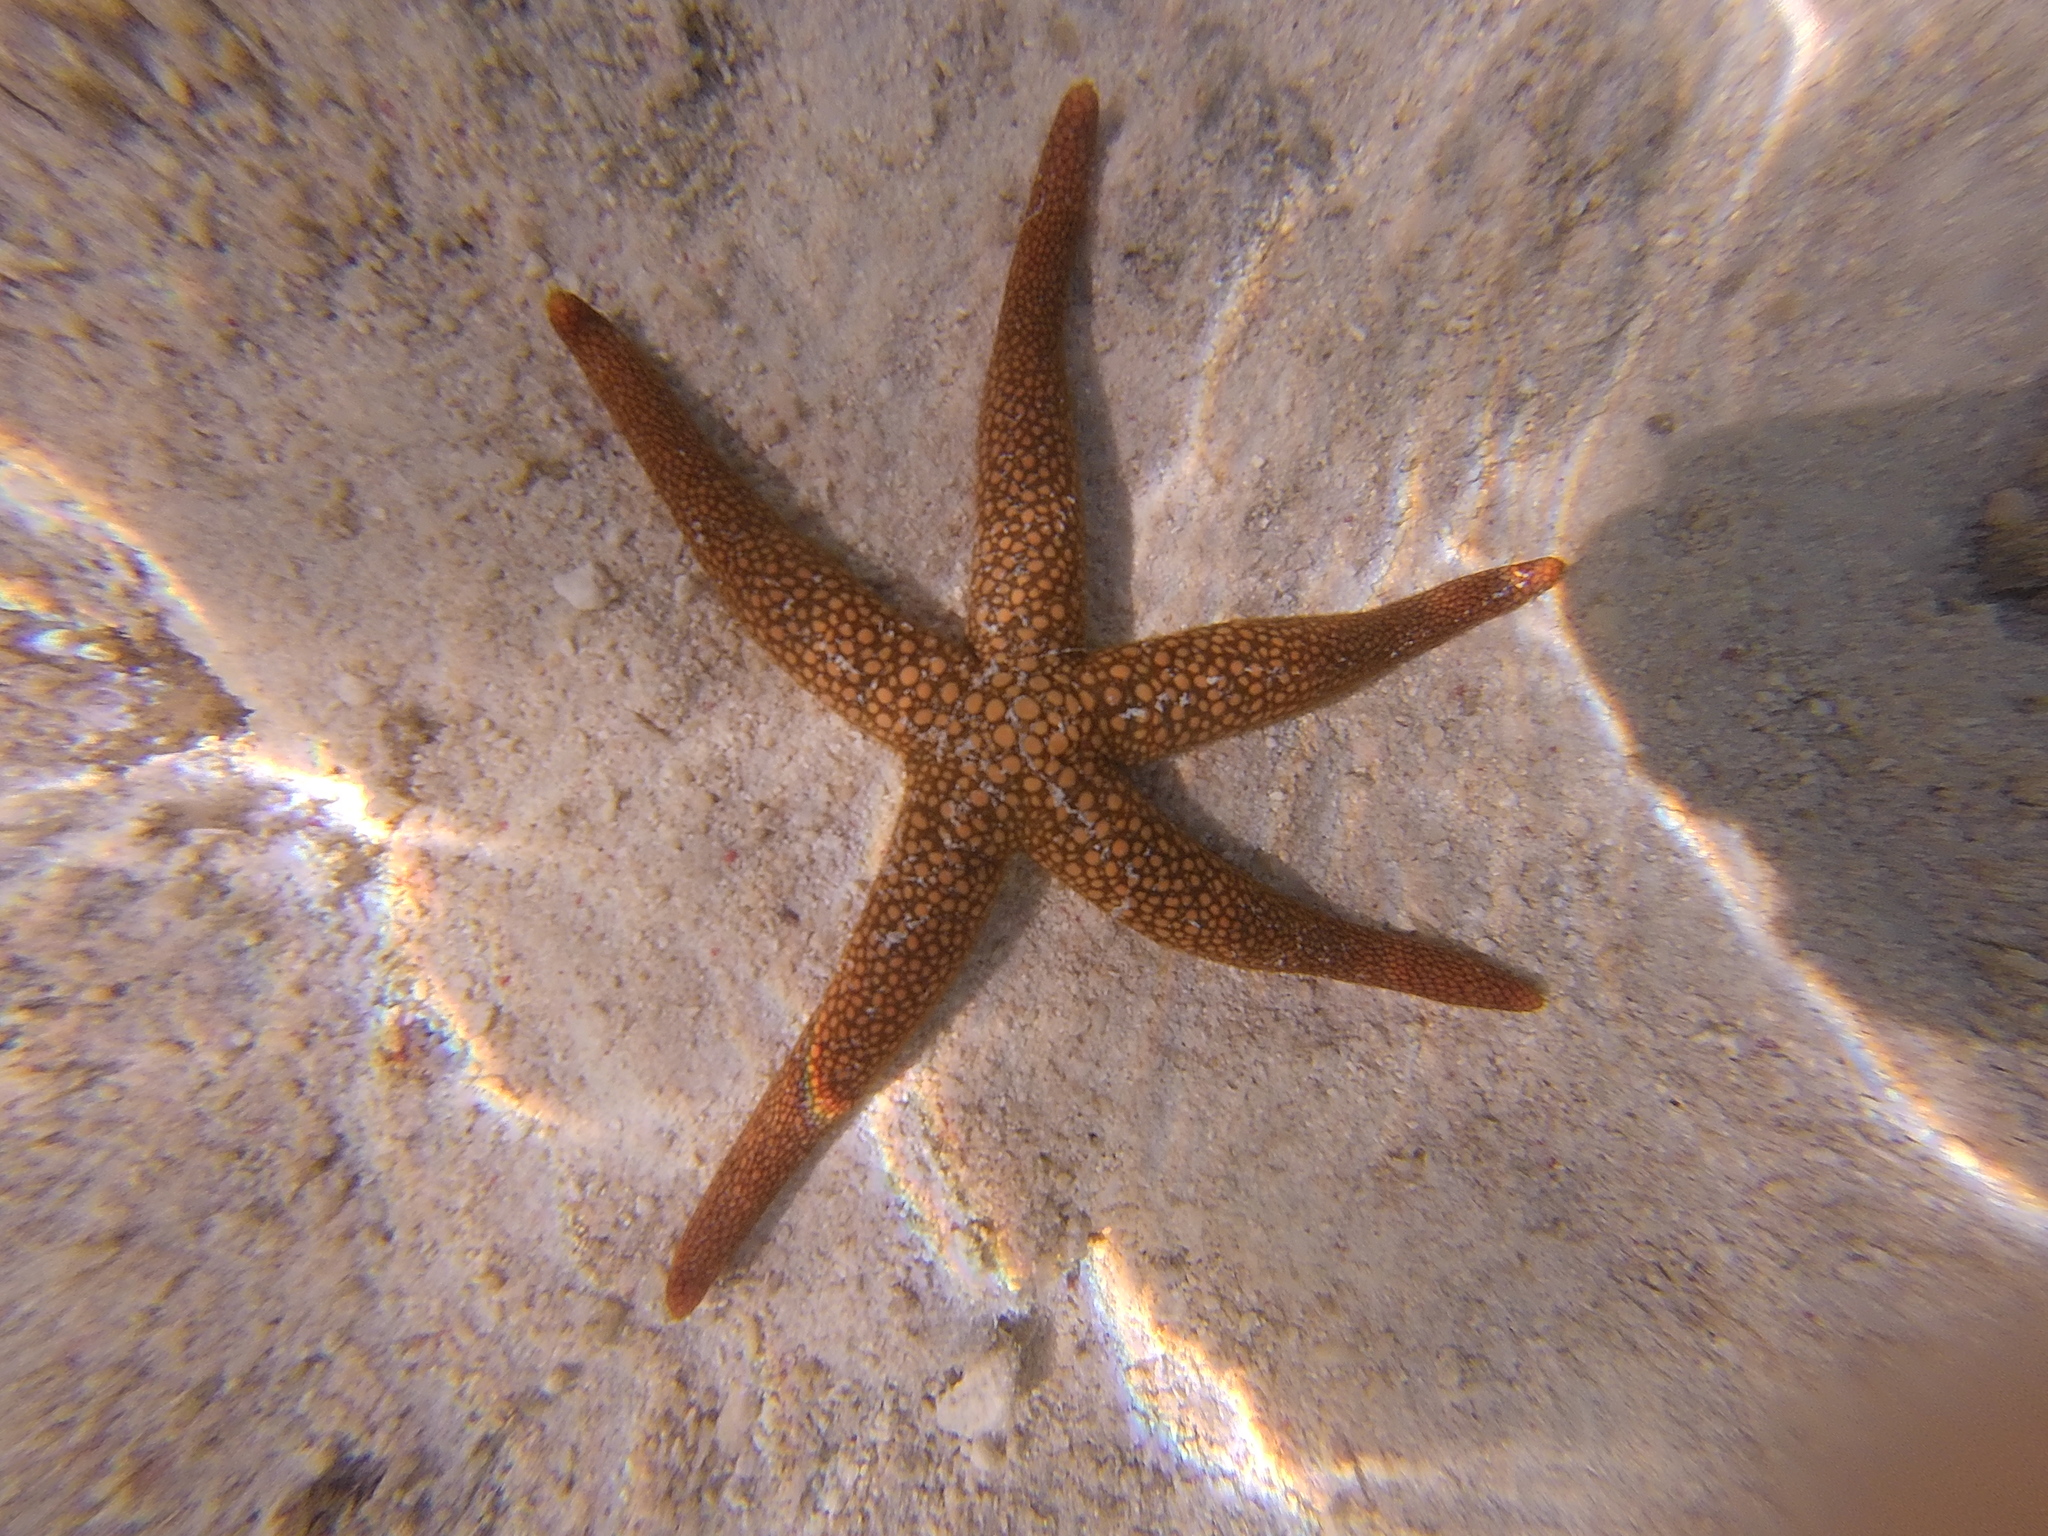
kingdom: Animalia
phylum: Echinodermata
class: Asteroidea
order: Valvatida
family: Ophidiasteridae
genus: Nardoa
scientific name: Nardoa novaecaledoniae
